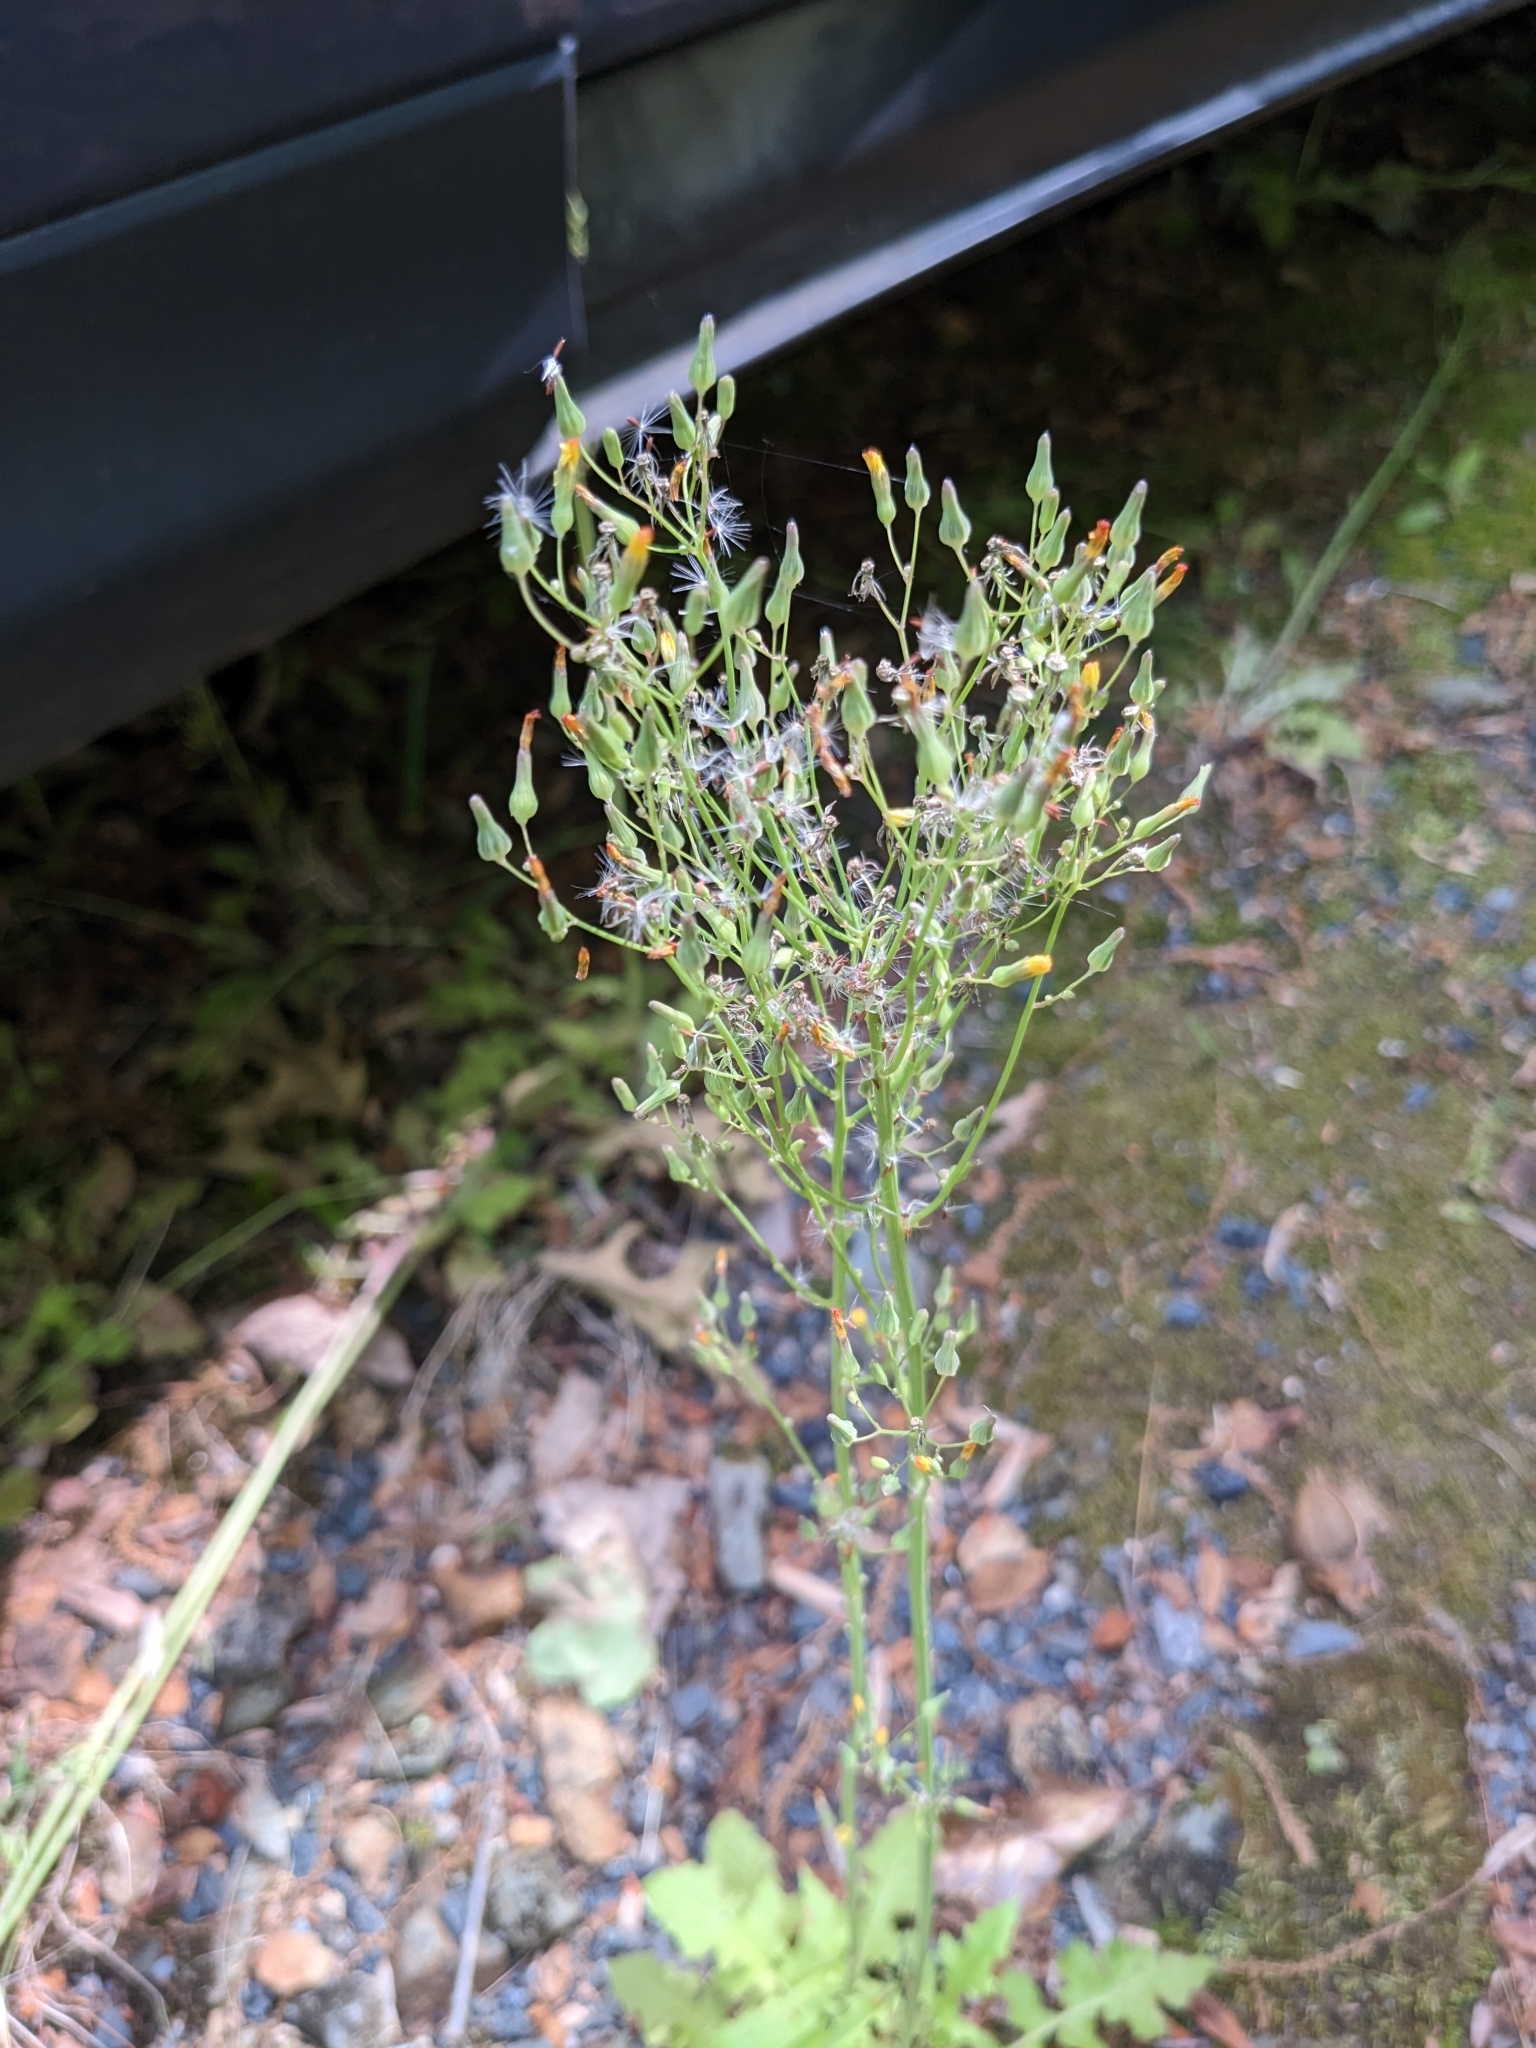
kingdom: Plantae
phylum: Tracheophyta
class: Magnoliopsida
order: Asterales
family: Asteraceae
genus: Youngia
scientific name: Youngia japonica
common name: Oriental false hawksbeard
